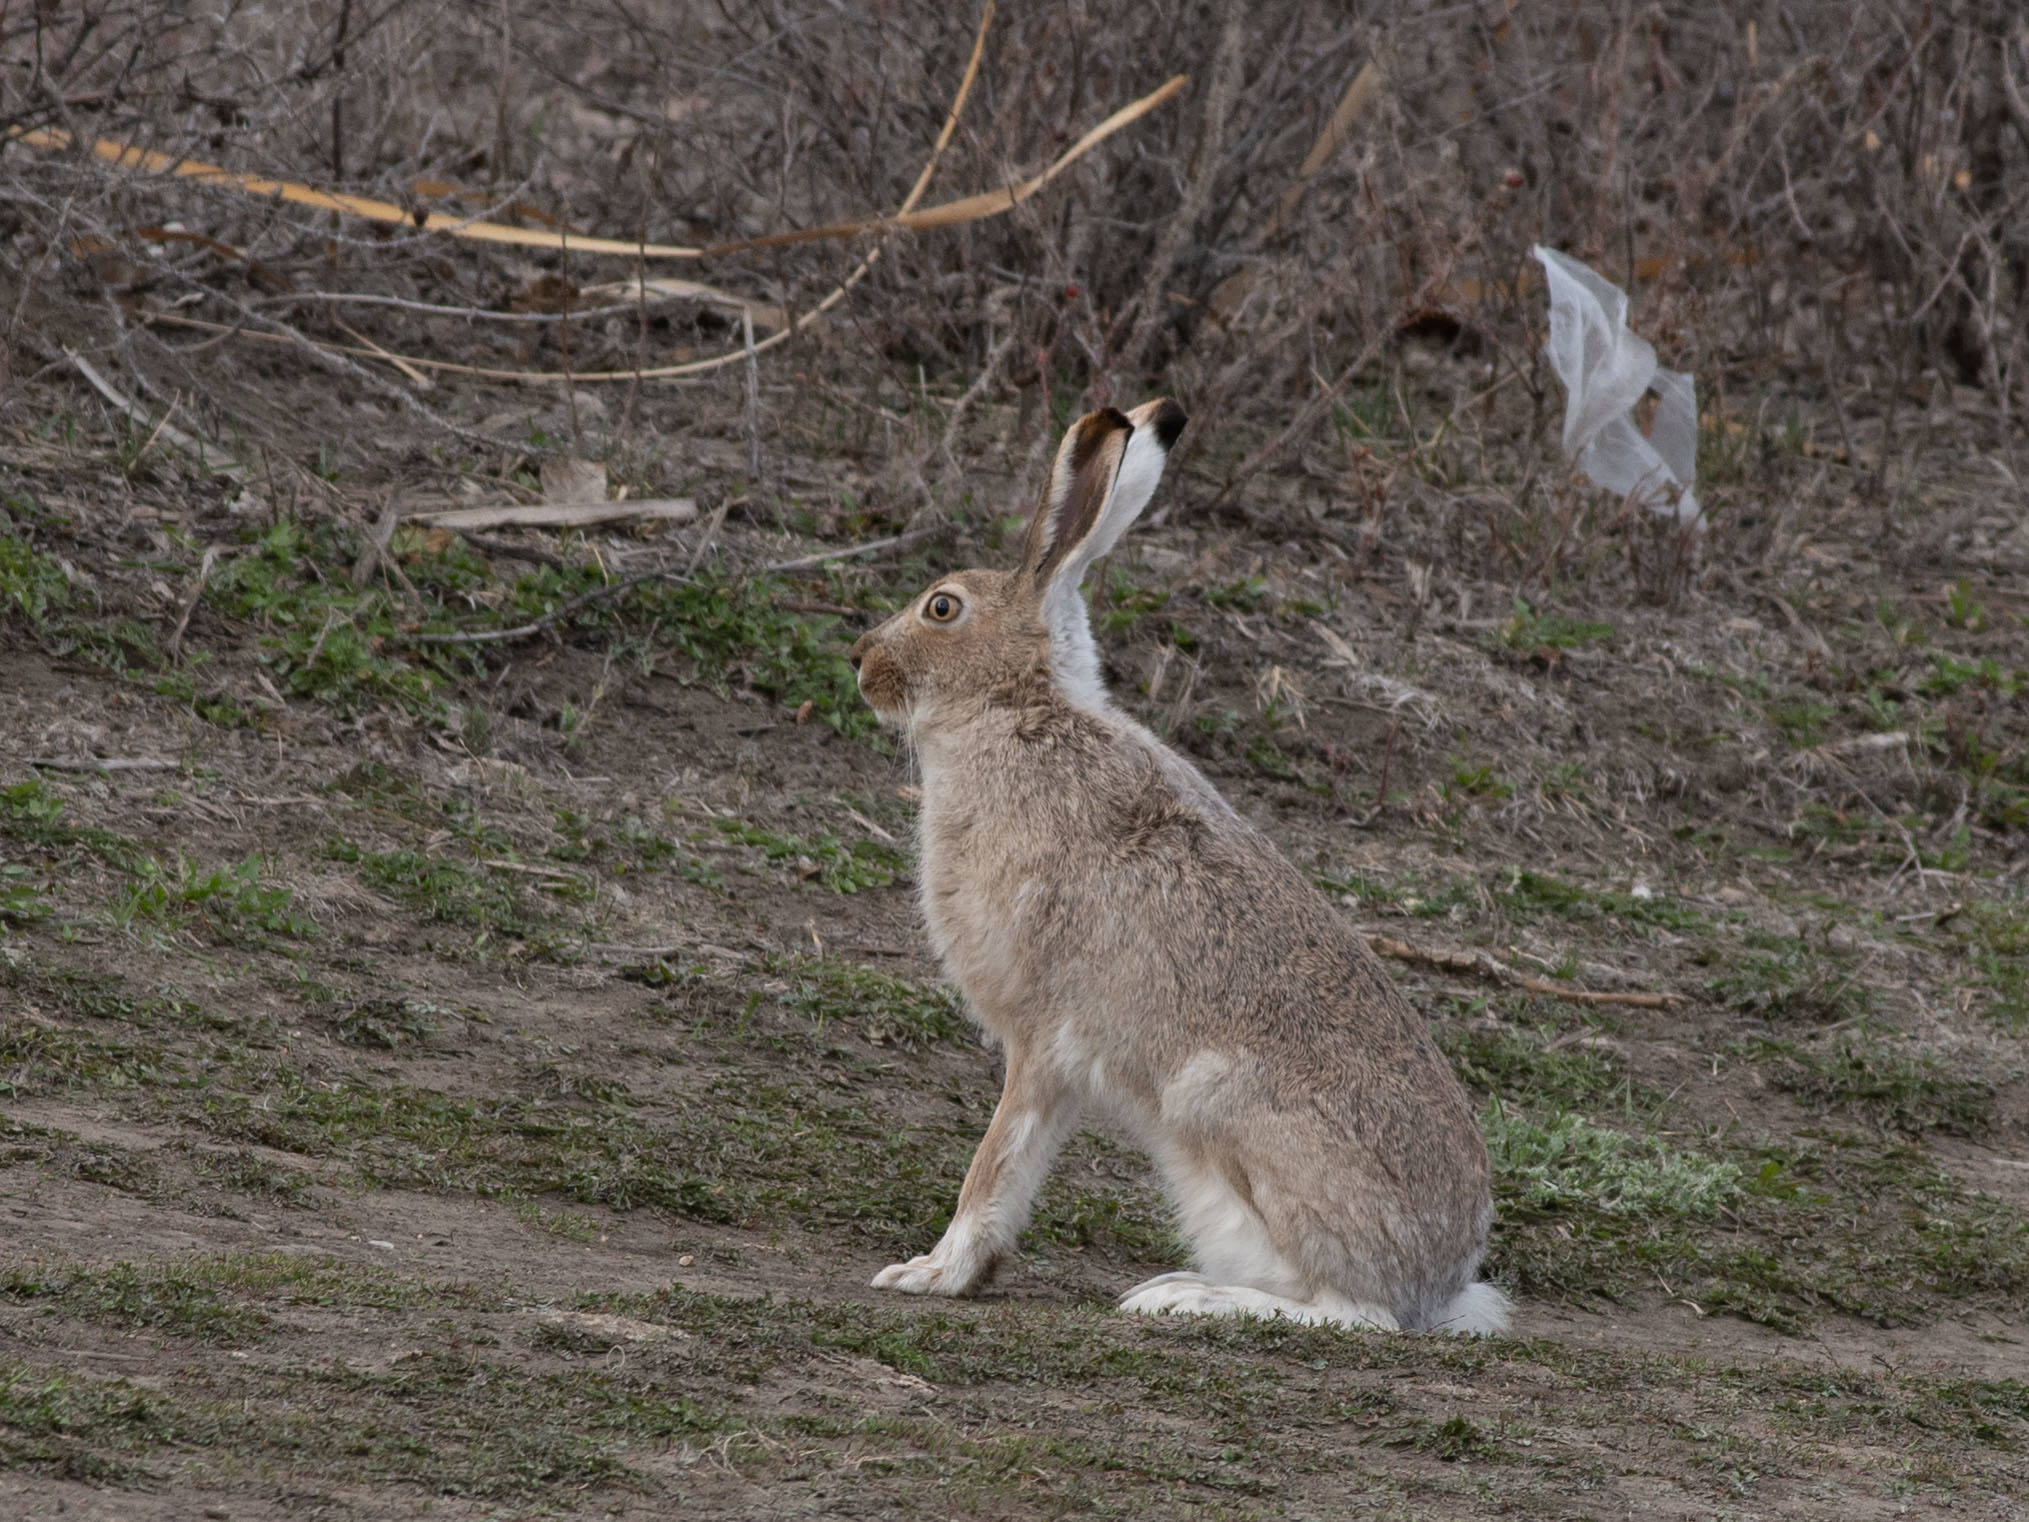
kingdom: Animalia
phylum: Chordata
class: Mammalia
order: Lagomorpha
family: Leporidae
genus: Lepus
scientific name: Lepus townsendii
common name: White-tailed jackrabbit
